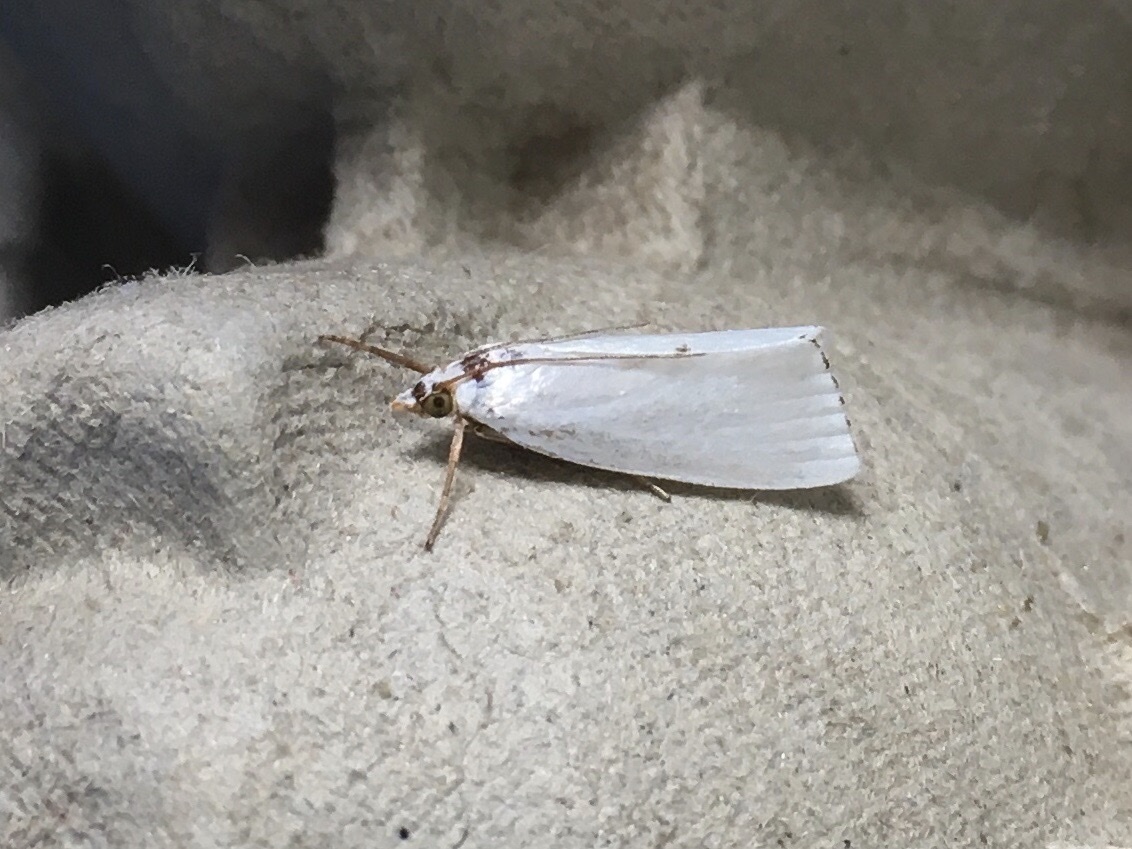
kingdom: Animalia
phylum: Arthropoda
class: Insecta
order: Lepidoptera
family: Crambidae
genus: Argyria
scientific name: Argyria nivalis
